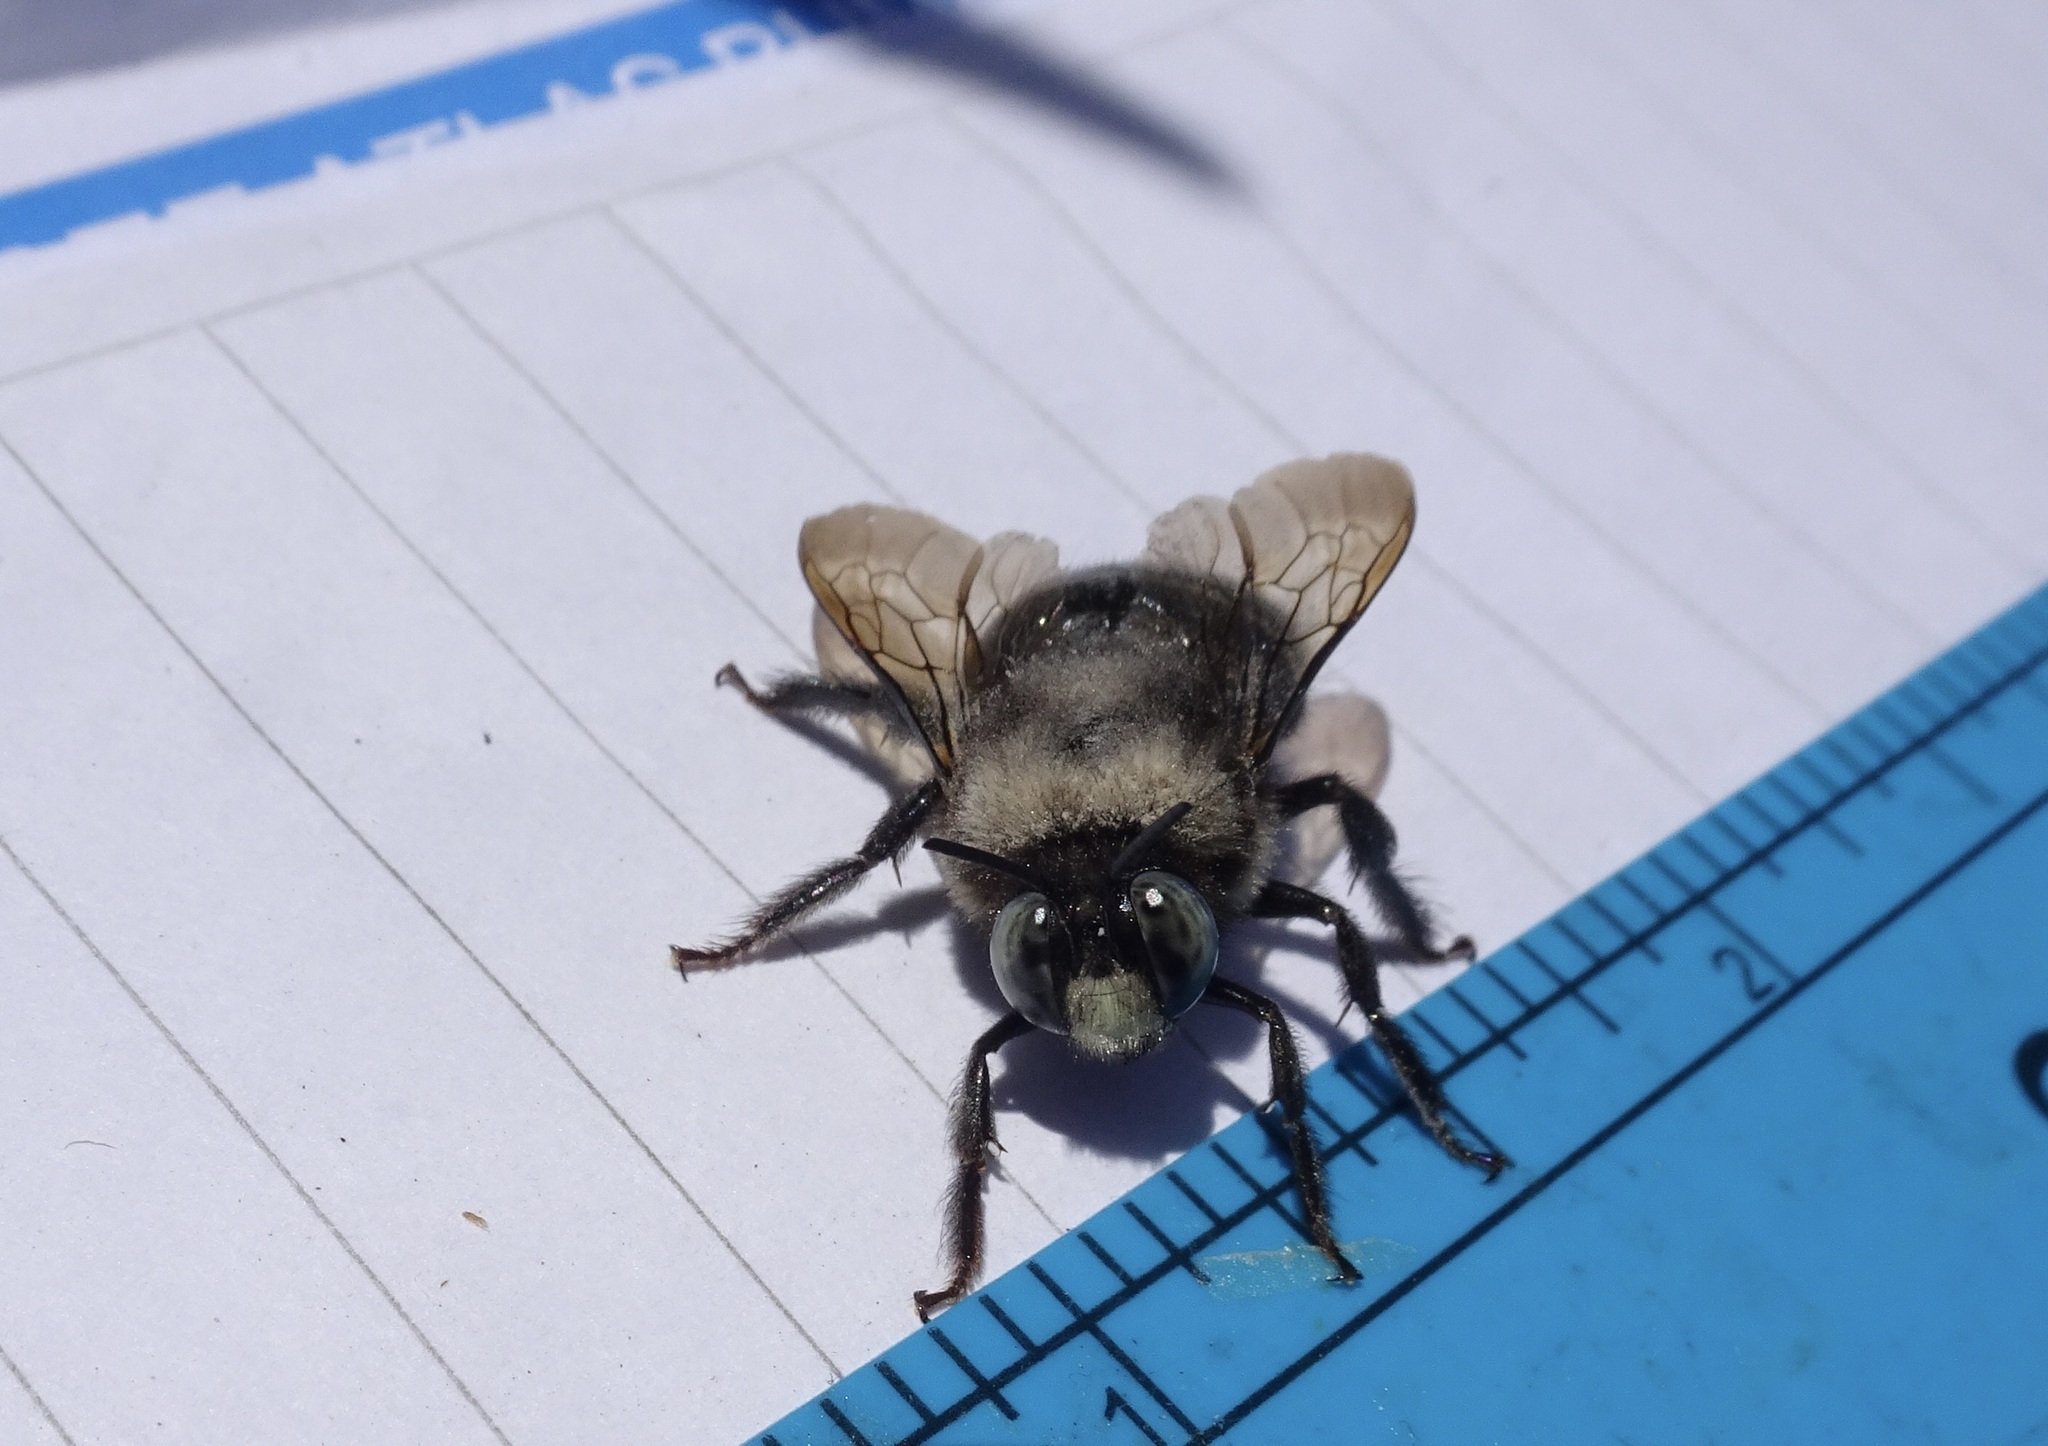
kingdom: Animalia
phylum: Arthropoda
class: Insecta
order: Hymenoptera
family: Apidae
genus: Xylocopa
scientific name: Xylocopa tabaniformis
